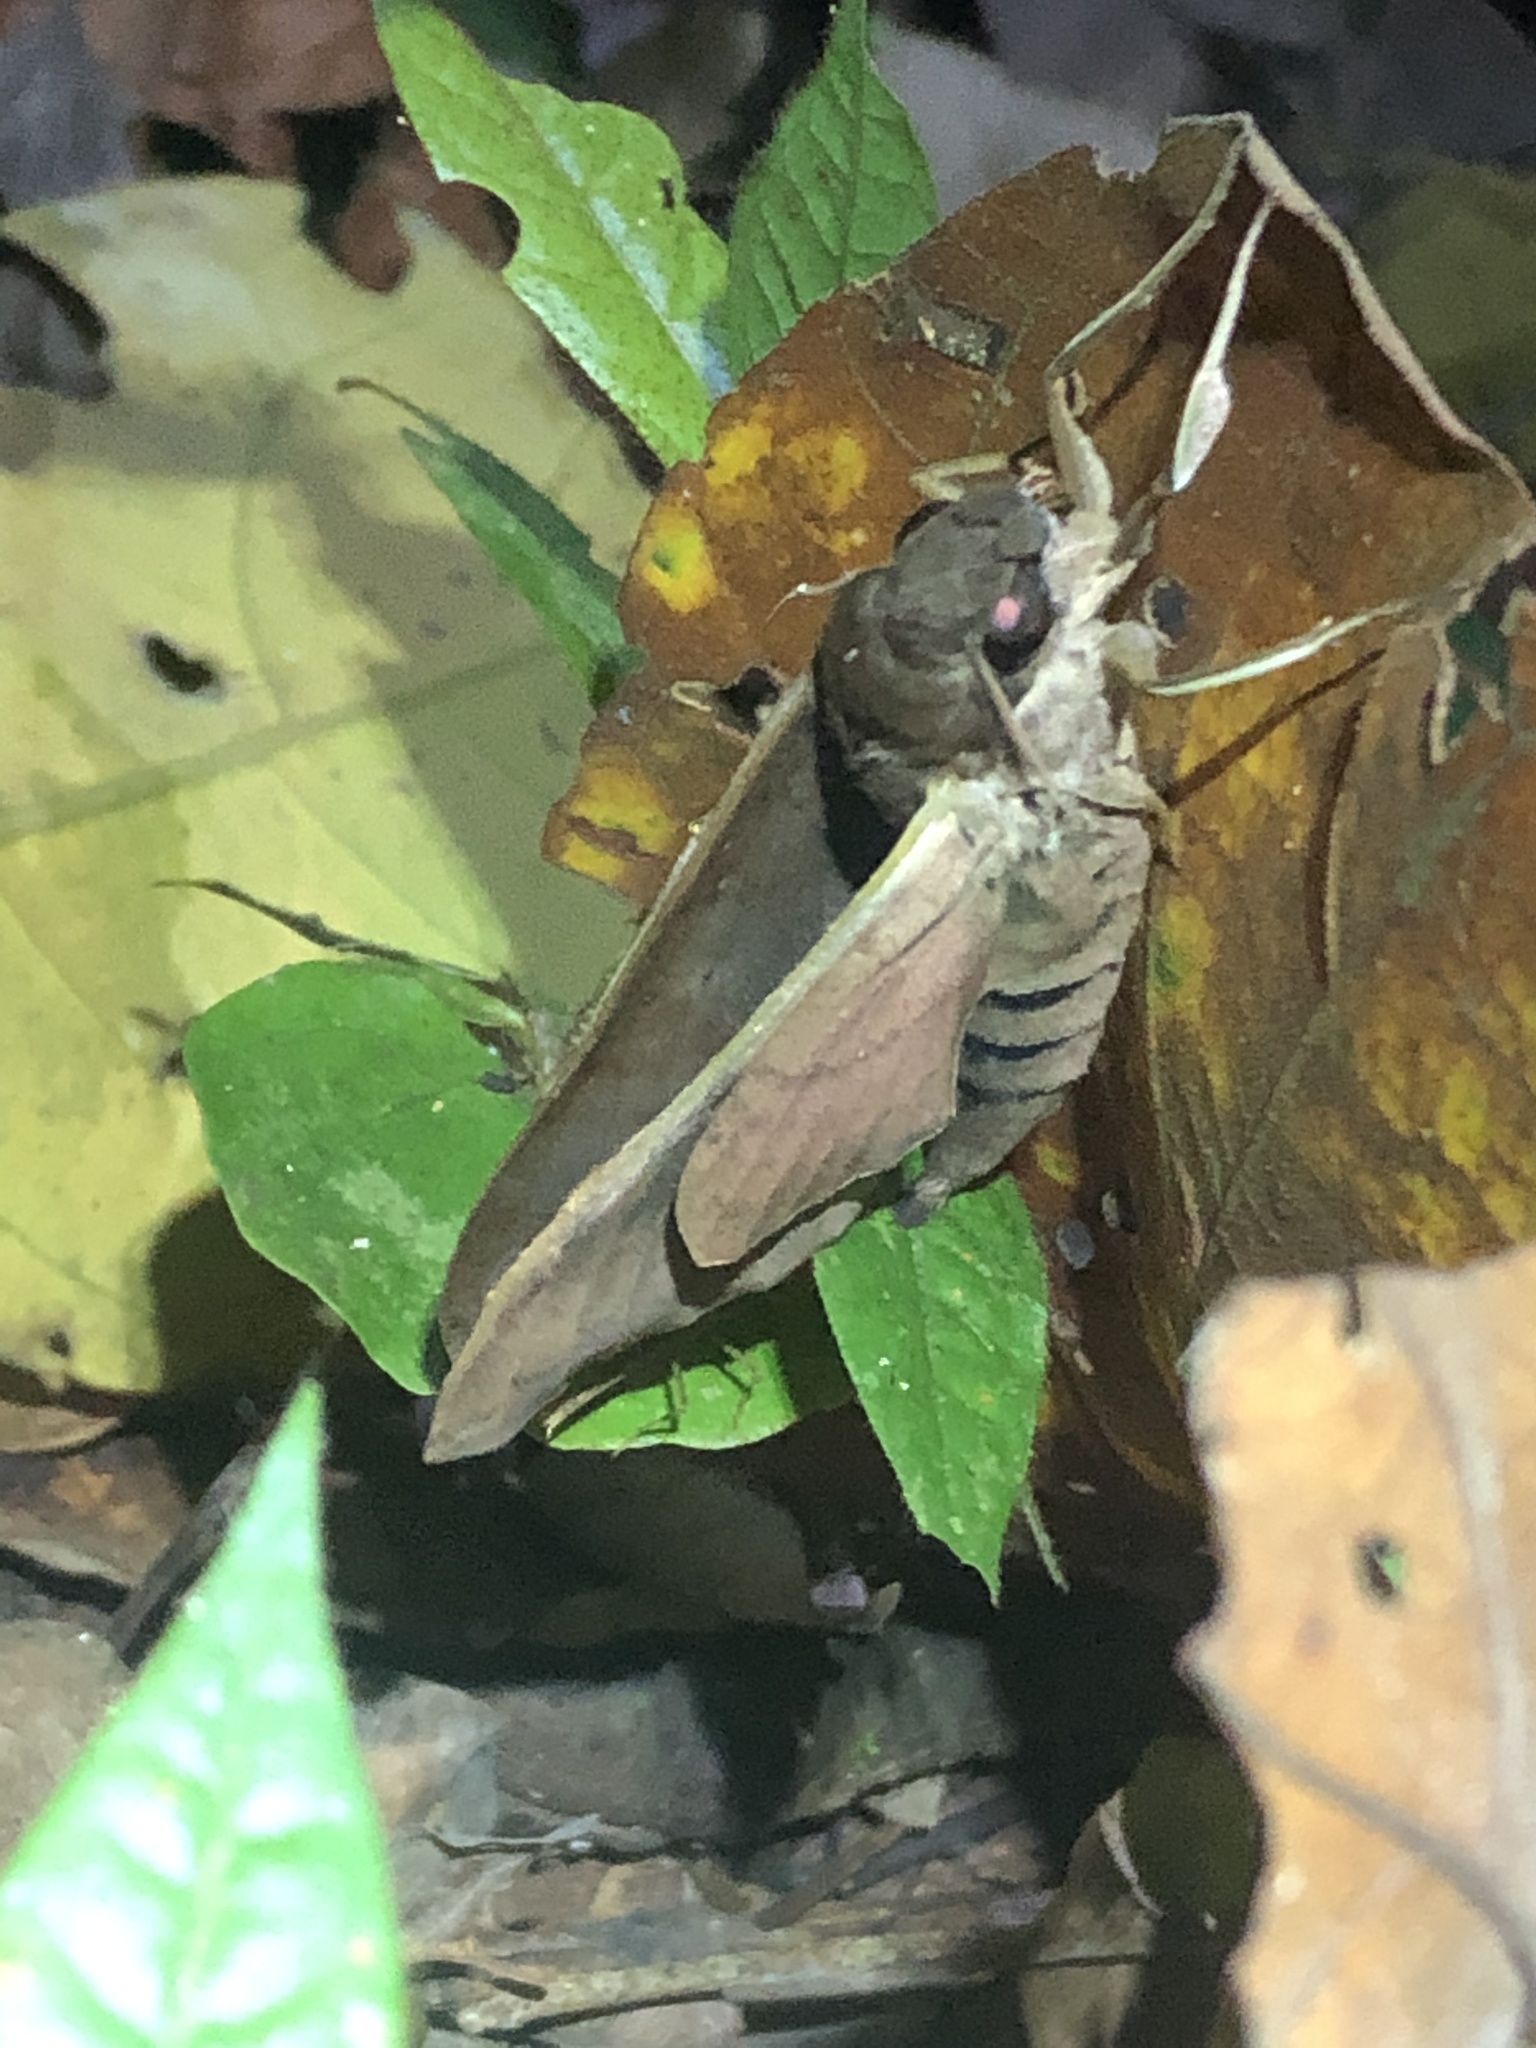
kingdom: Animalia
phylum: Arthropoda
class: Insecta
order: Lepidoptera
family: Sphingidae
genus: Pachylioides
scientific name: Pachylioides resumens
